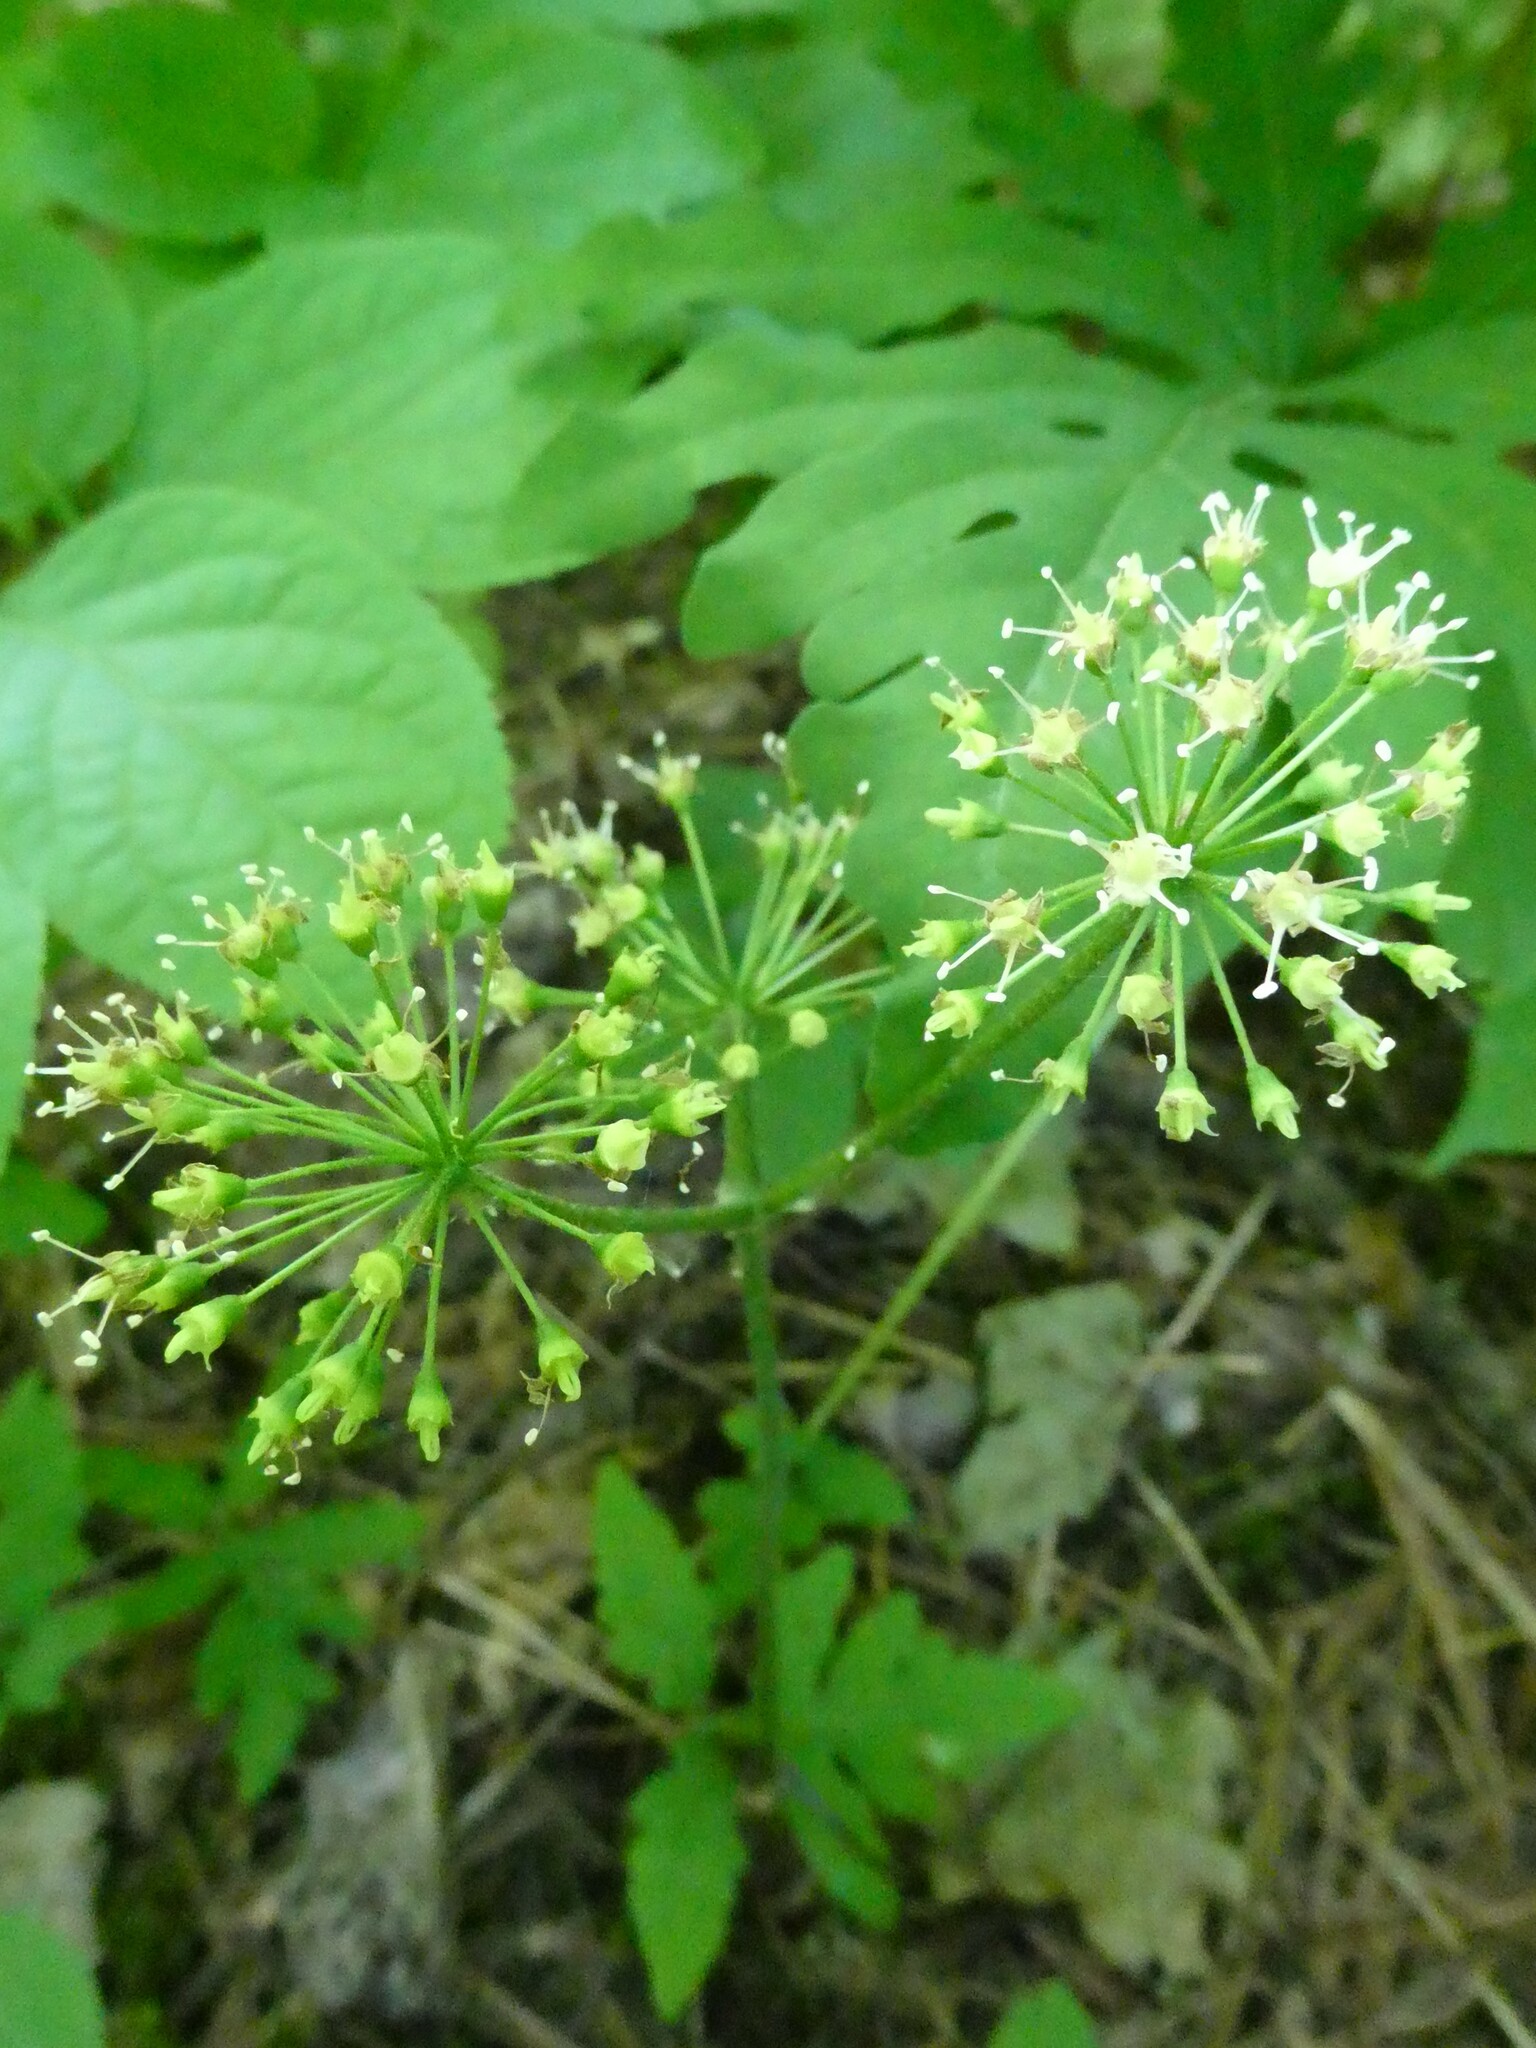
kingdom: Plantae
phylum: Tracheophyta
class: Magnoliopsida
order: Apiales
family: Araliaceae
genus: Aralia
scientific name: Aralia nudicaulis
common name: Wild sarsaparilla
